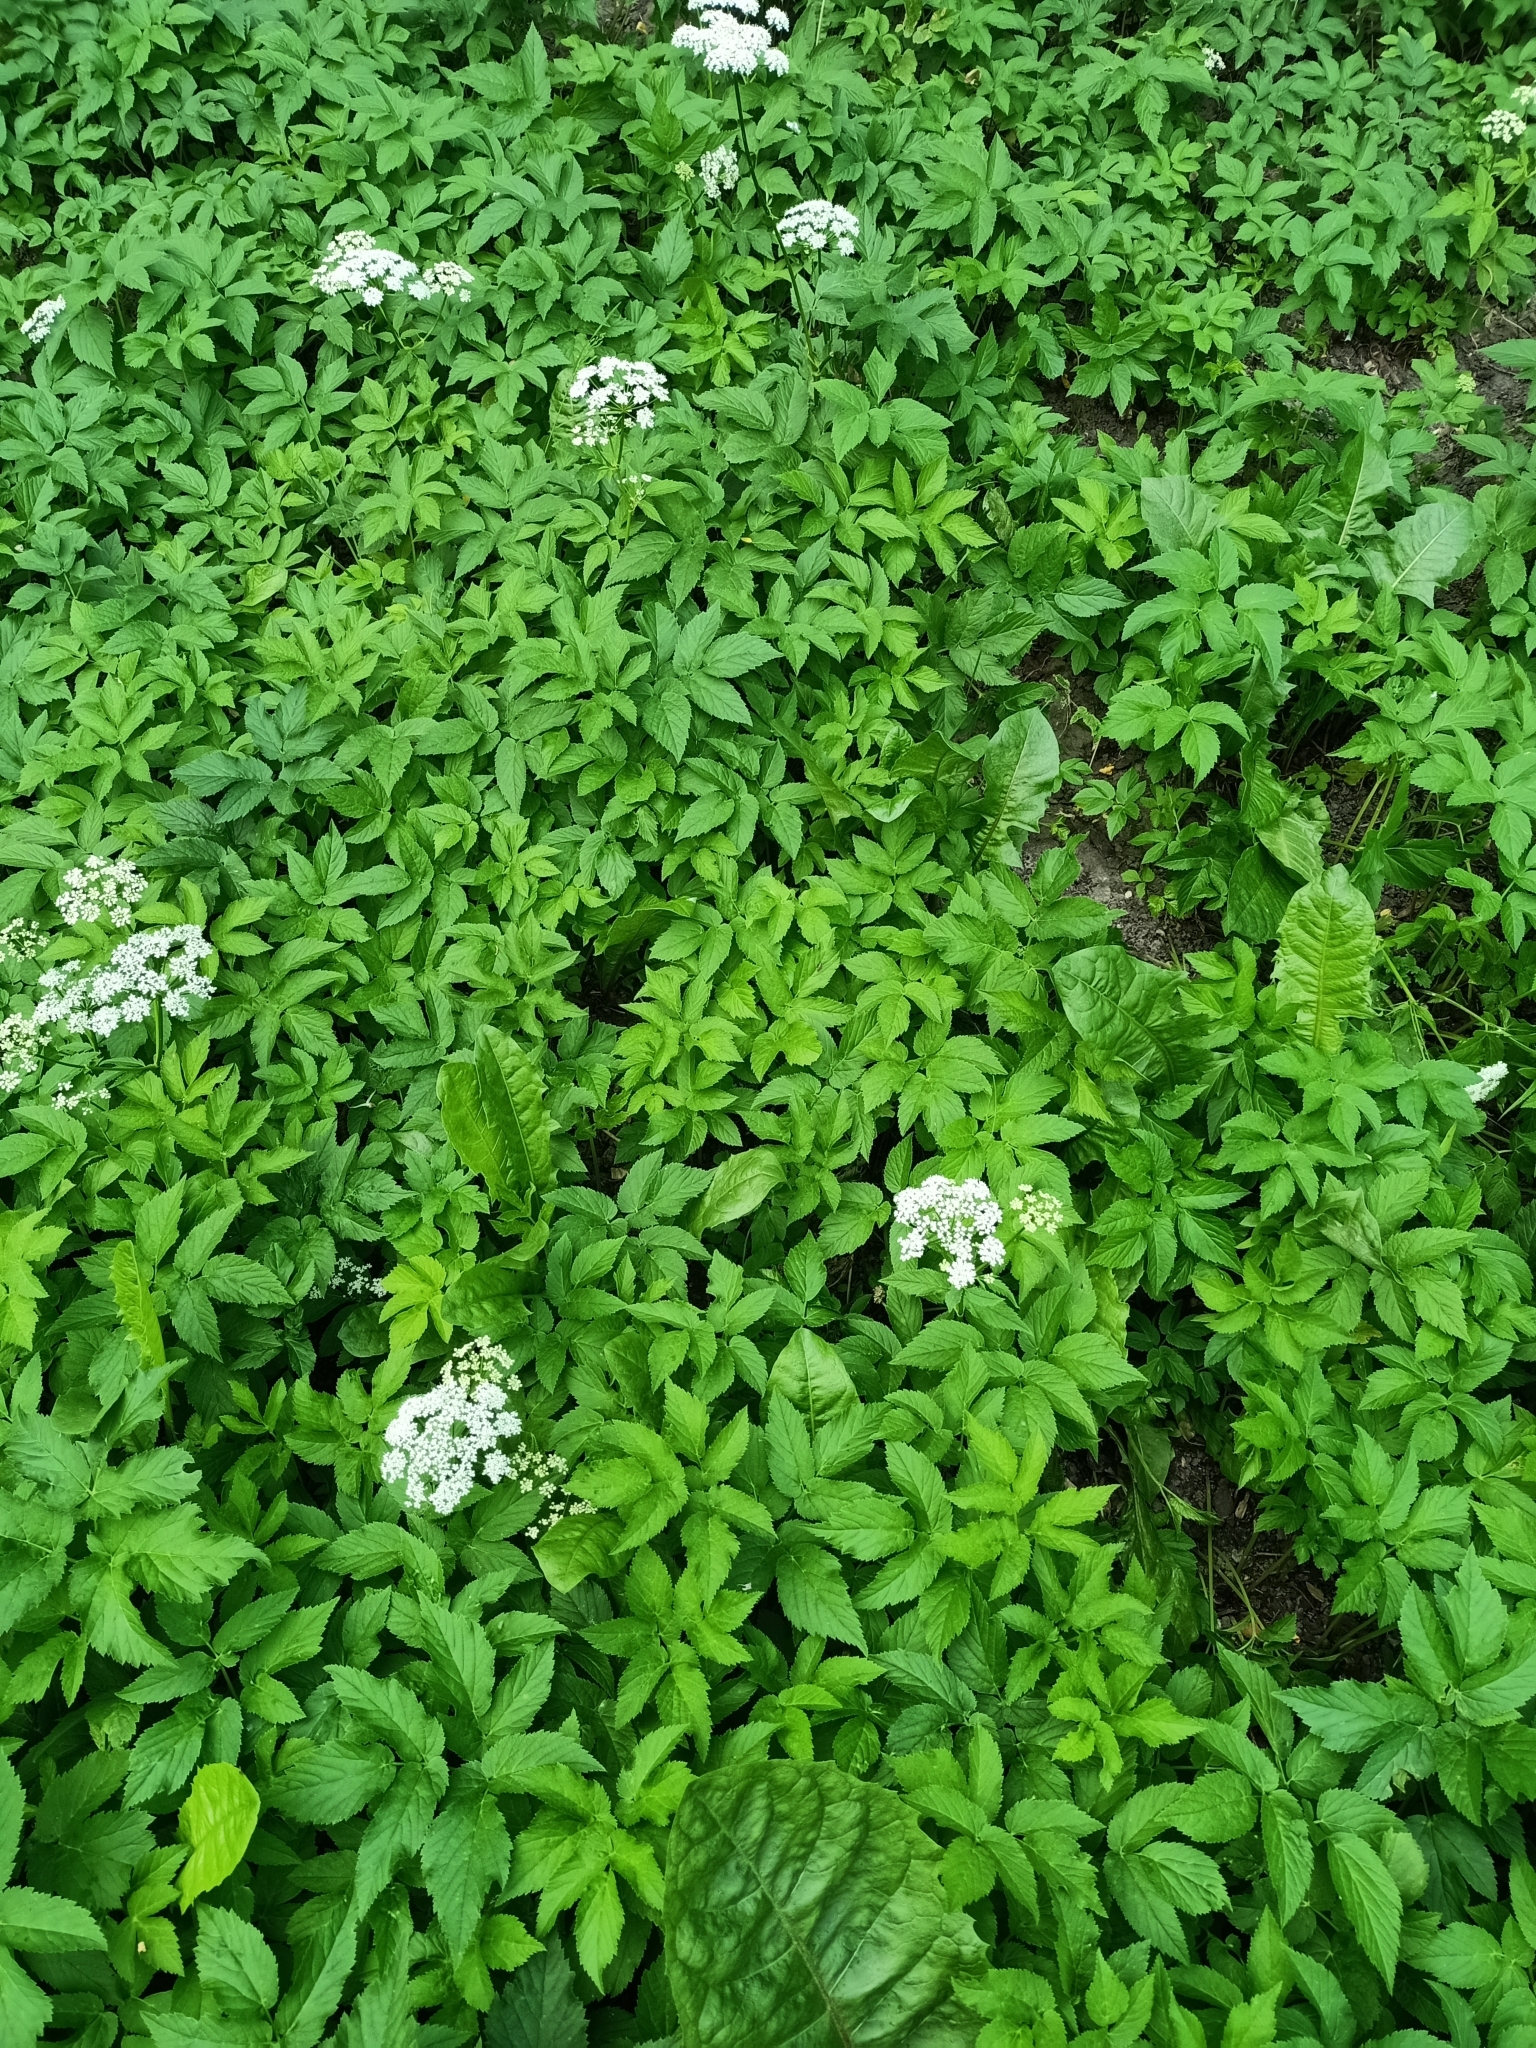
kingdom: Plantae
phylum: Tracheophyta
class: Magnoliopsida
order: Apiales
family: Apiaceae
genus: Aegopodium
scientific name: Aegopodium podagraria
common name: Ground-elder
